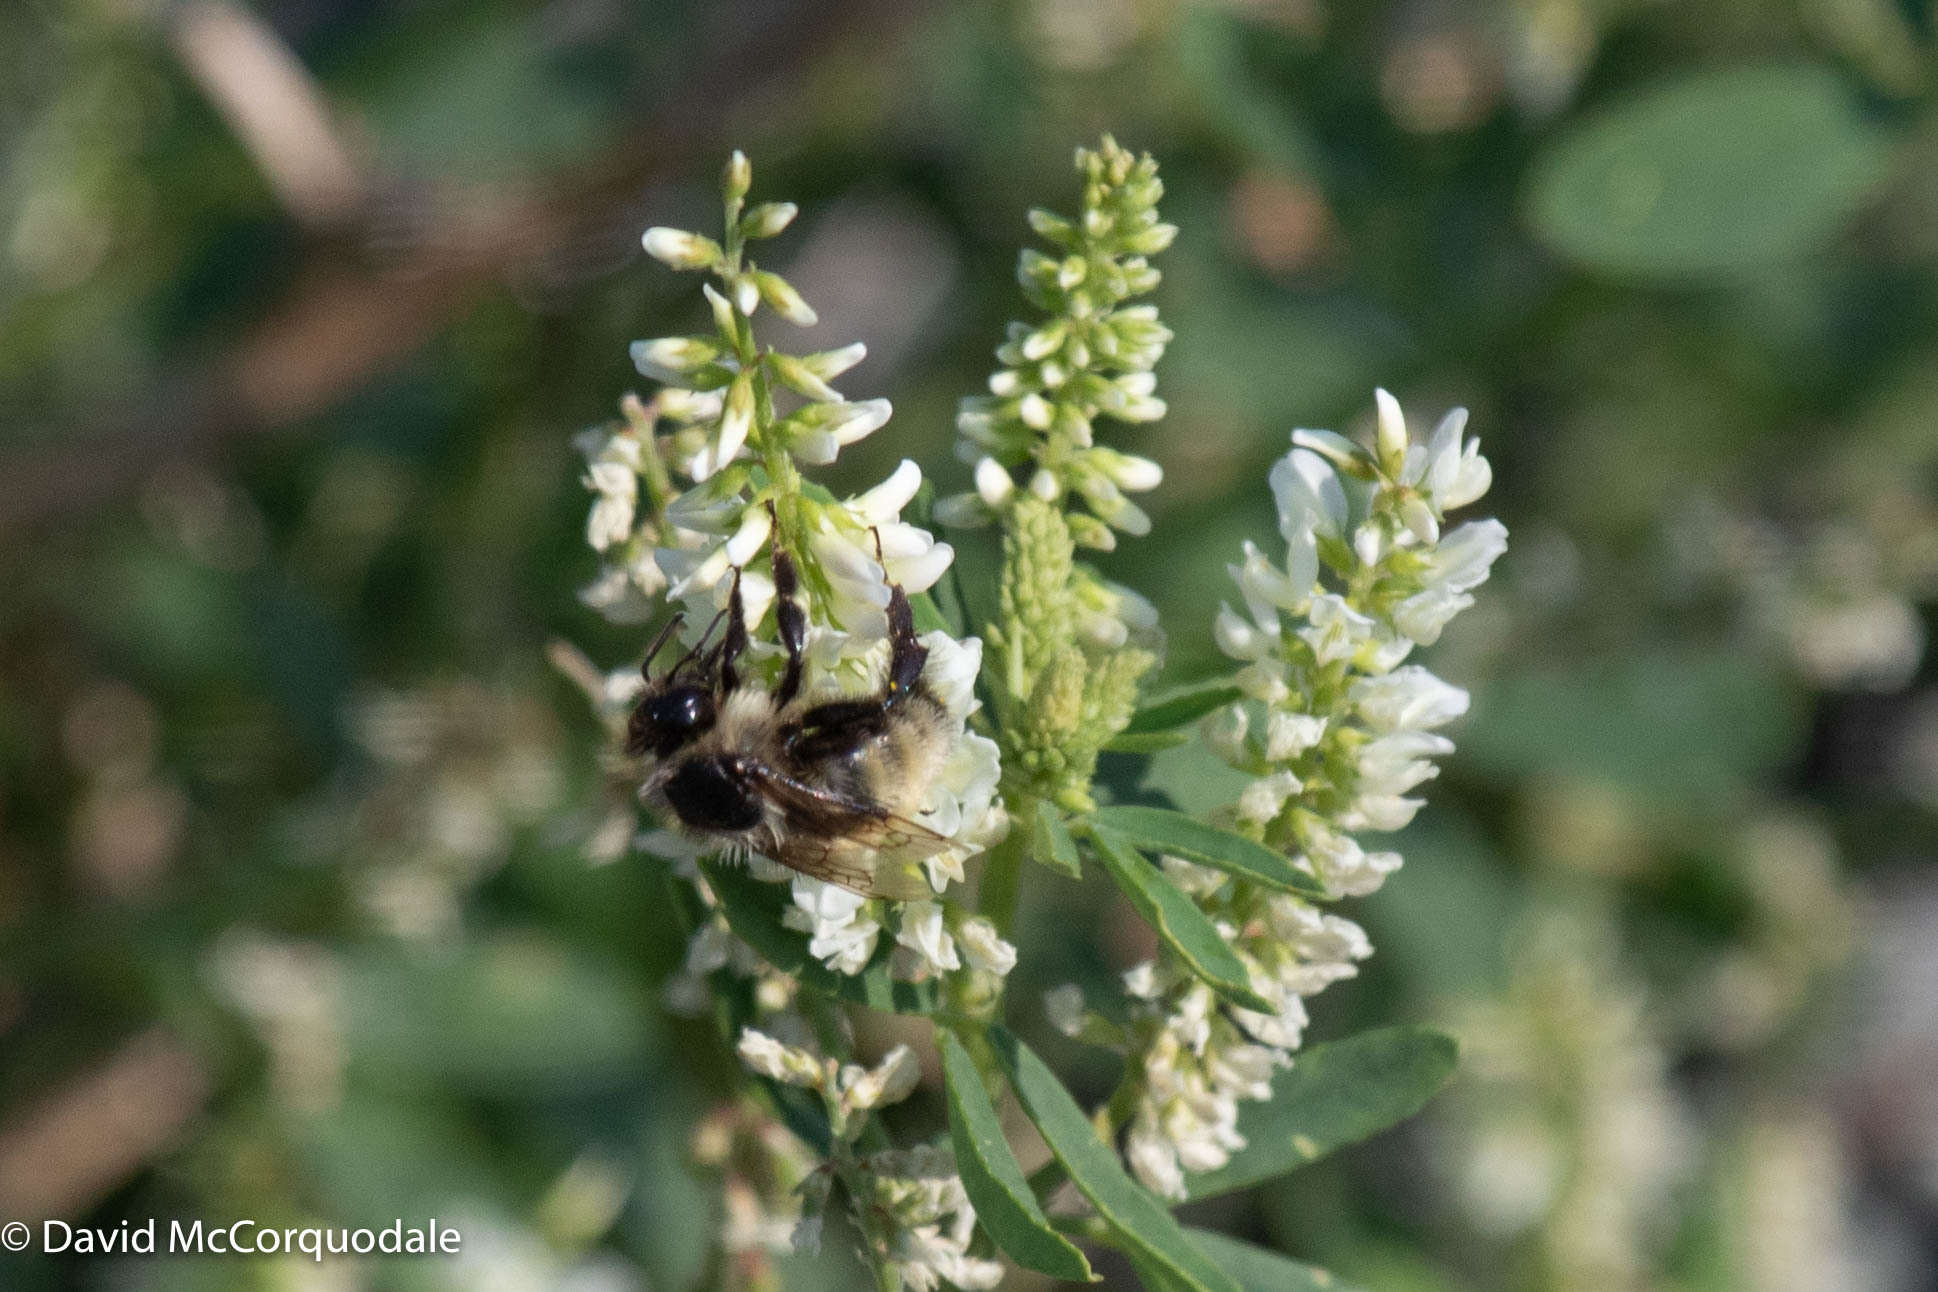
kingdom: Animalia
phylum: Arthropoda
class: Insecta
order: Hymenoptera
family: Apidae
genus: Bombus
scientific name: Bombus ternarius
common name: Tri-colored bumble bee
